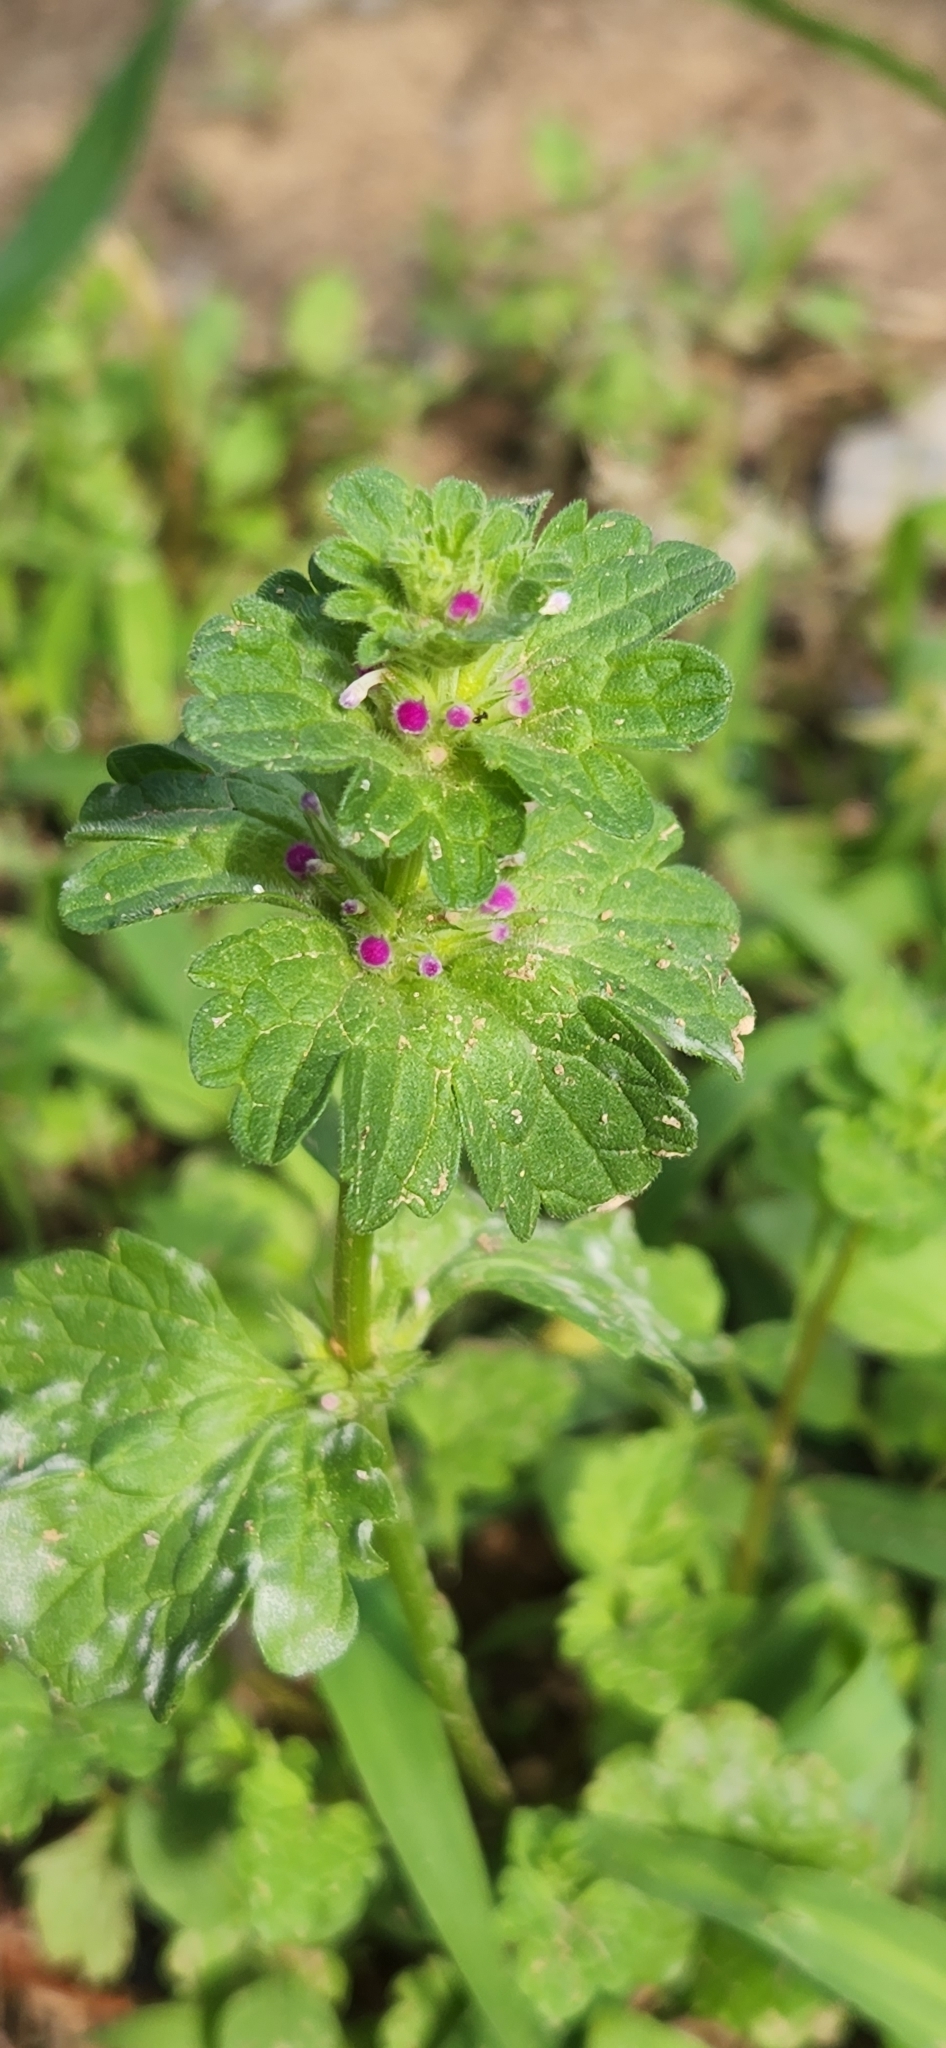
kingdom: Plantae
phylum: Tracheophyta
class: Magnoliopsida
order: Lamiales
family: Lamiaceae
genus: Lamium
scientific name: Lamium amplexicaule
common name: Henbit dead-nettle
